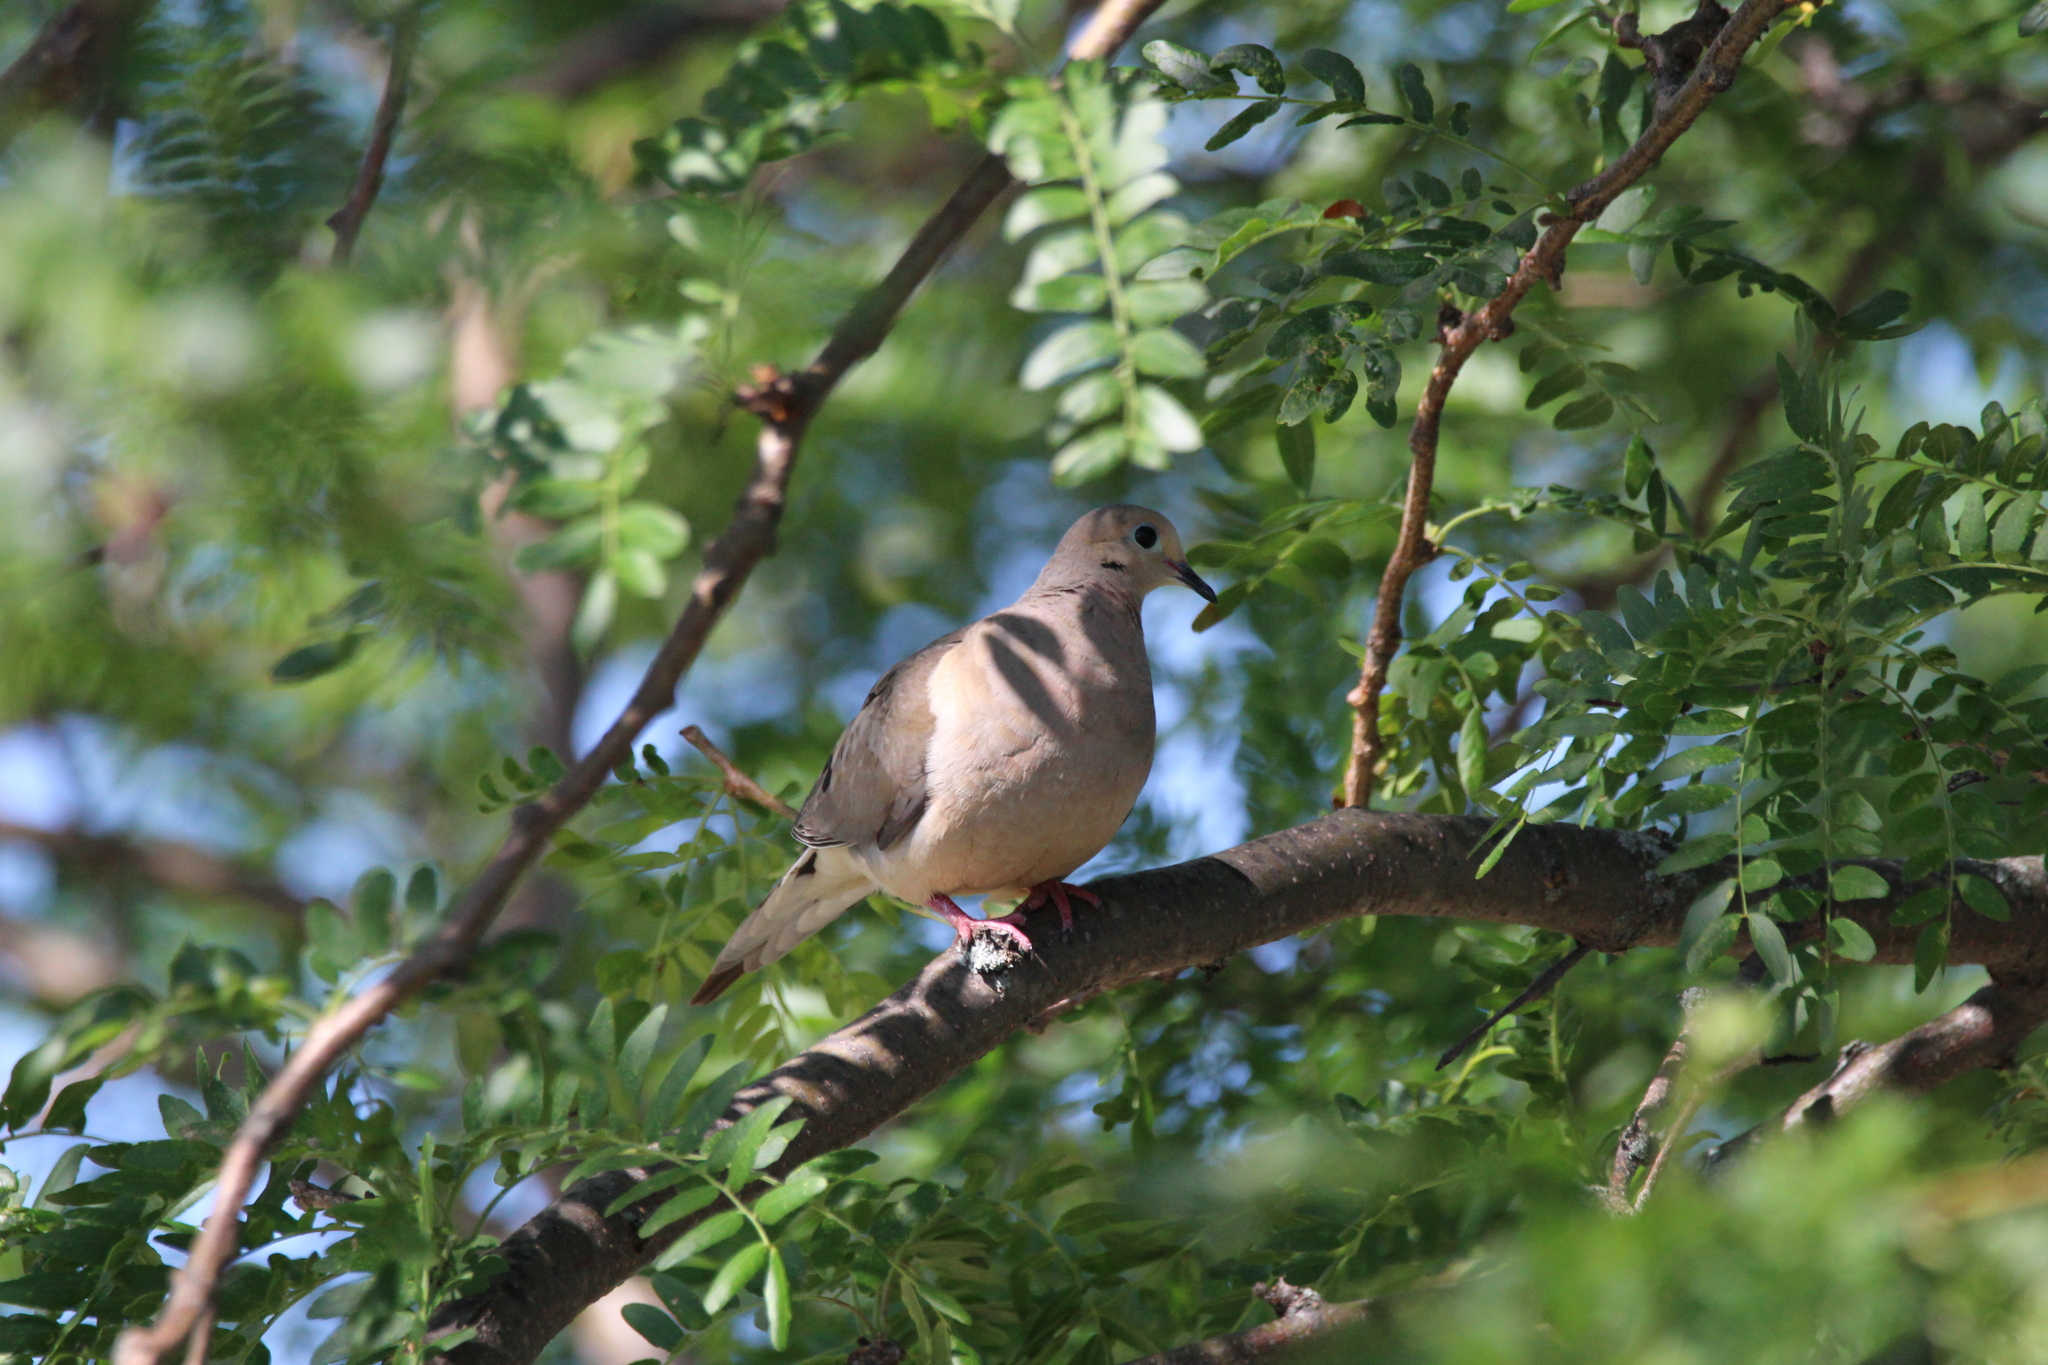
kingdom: Animalia
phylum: Chordata
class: Aves
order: Columbiformes
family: Columbidae
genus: Zenaida
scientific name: Zenaida macroura
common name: Mourning dove
